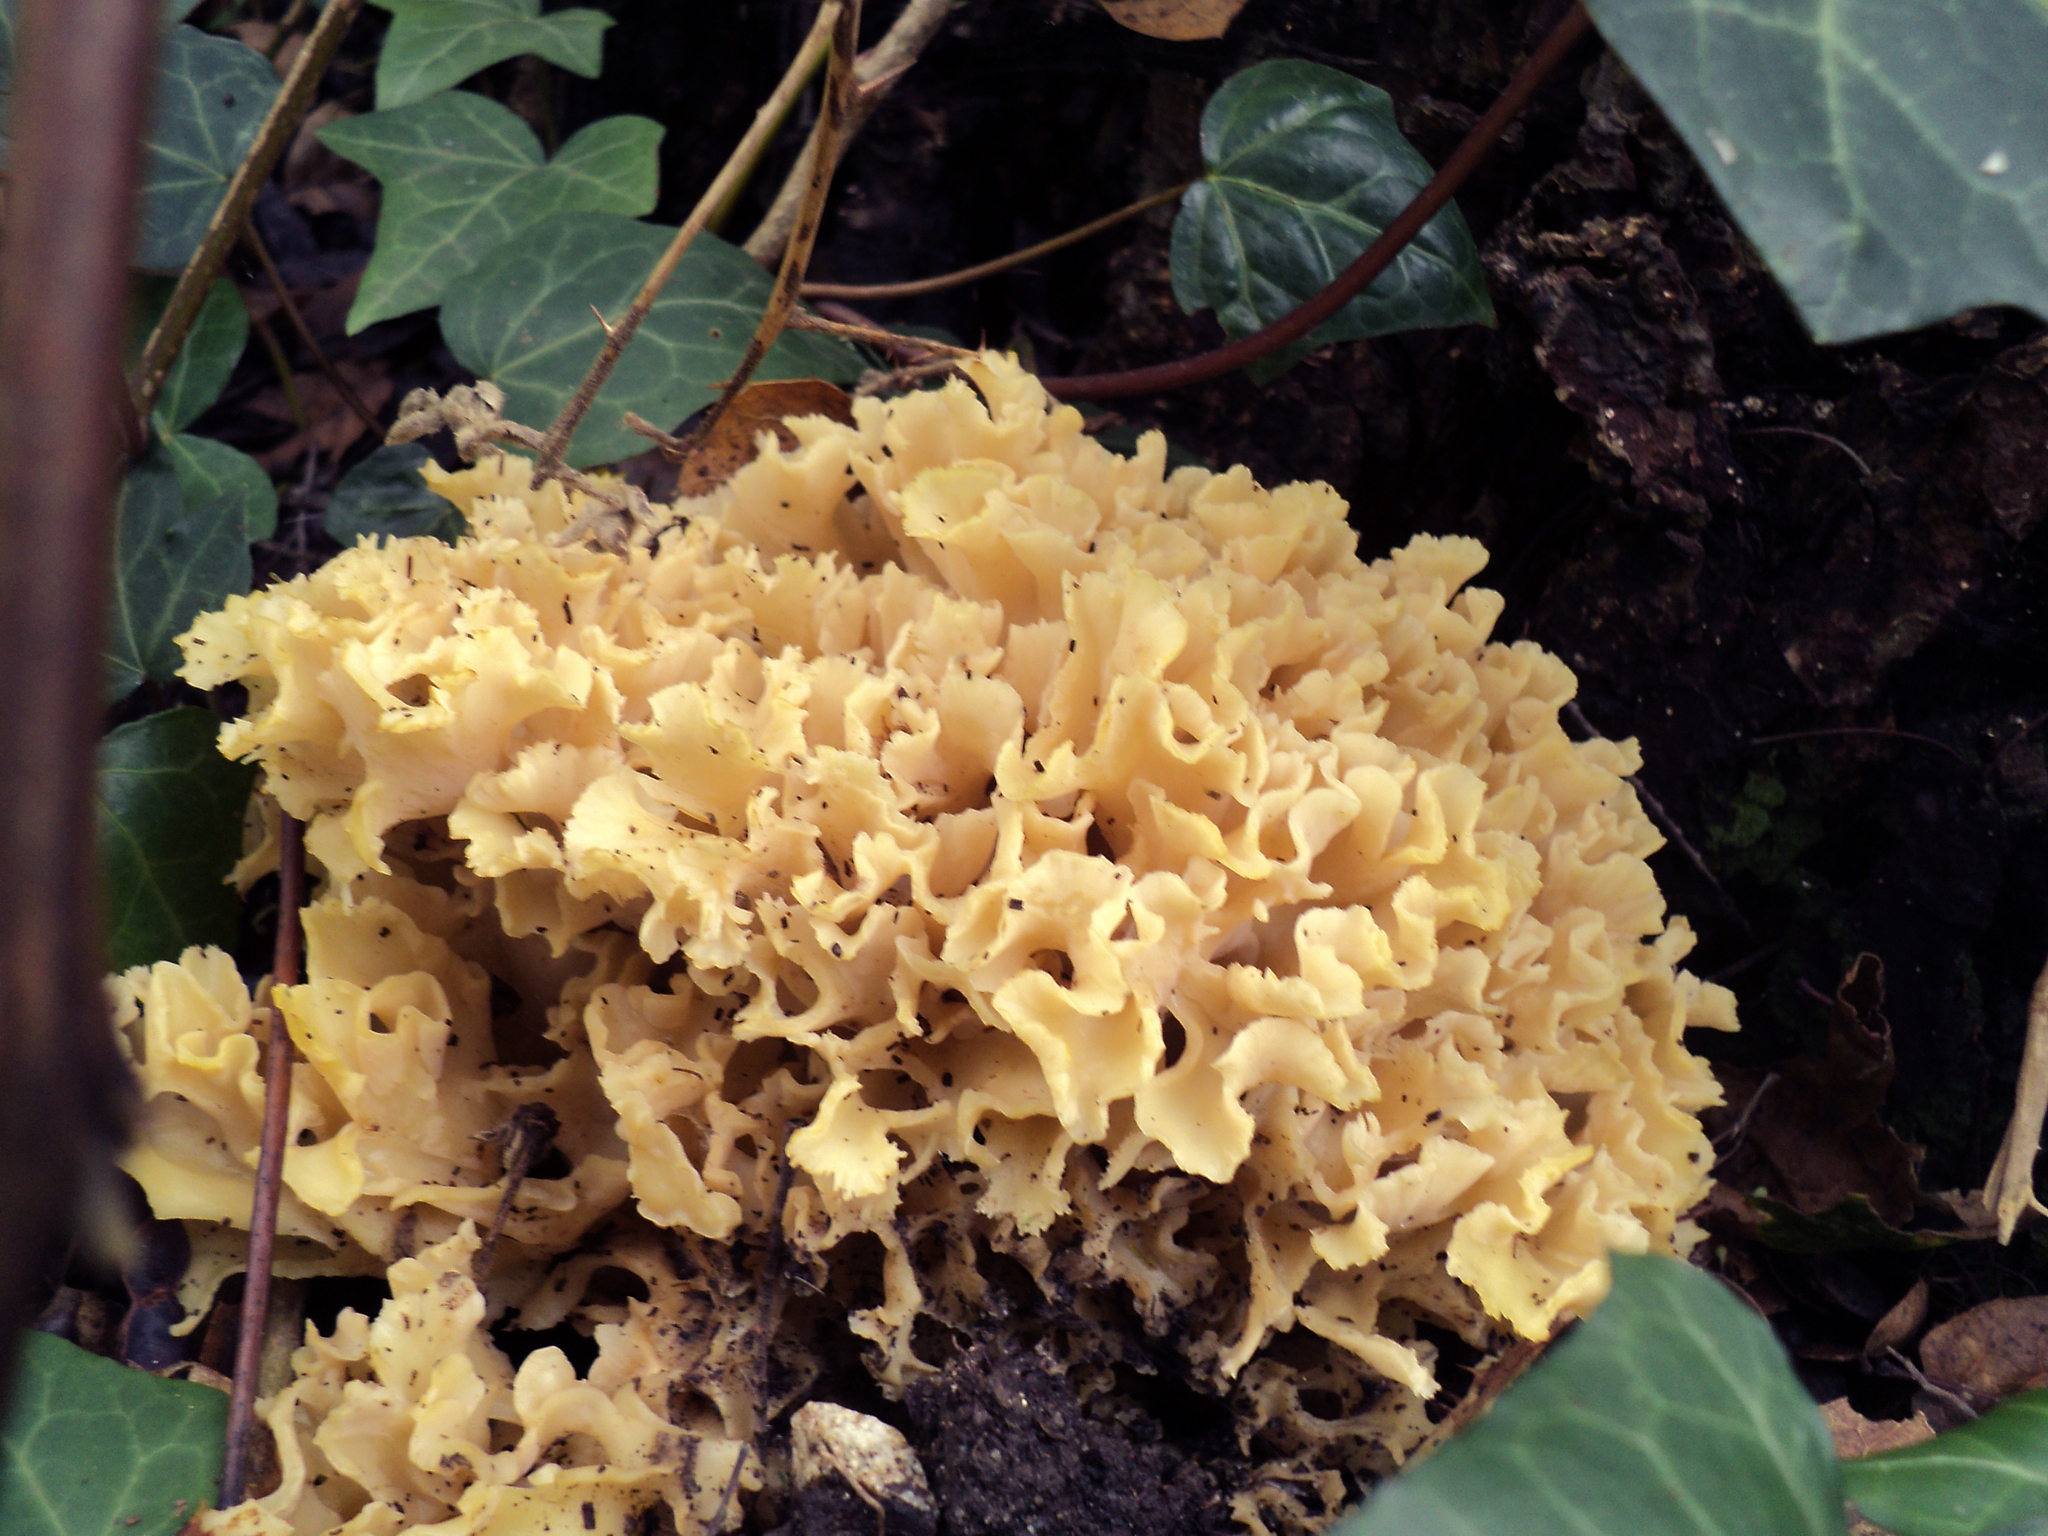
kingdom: Fungi
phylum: Basidiomycota
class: Agaricomycetes
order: Polyporales
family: Sparassidaceae
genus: Sparassis
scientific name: Sparassis radicata
